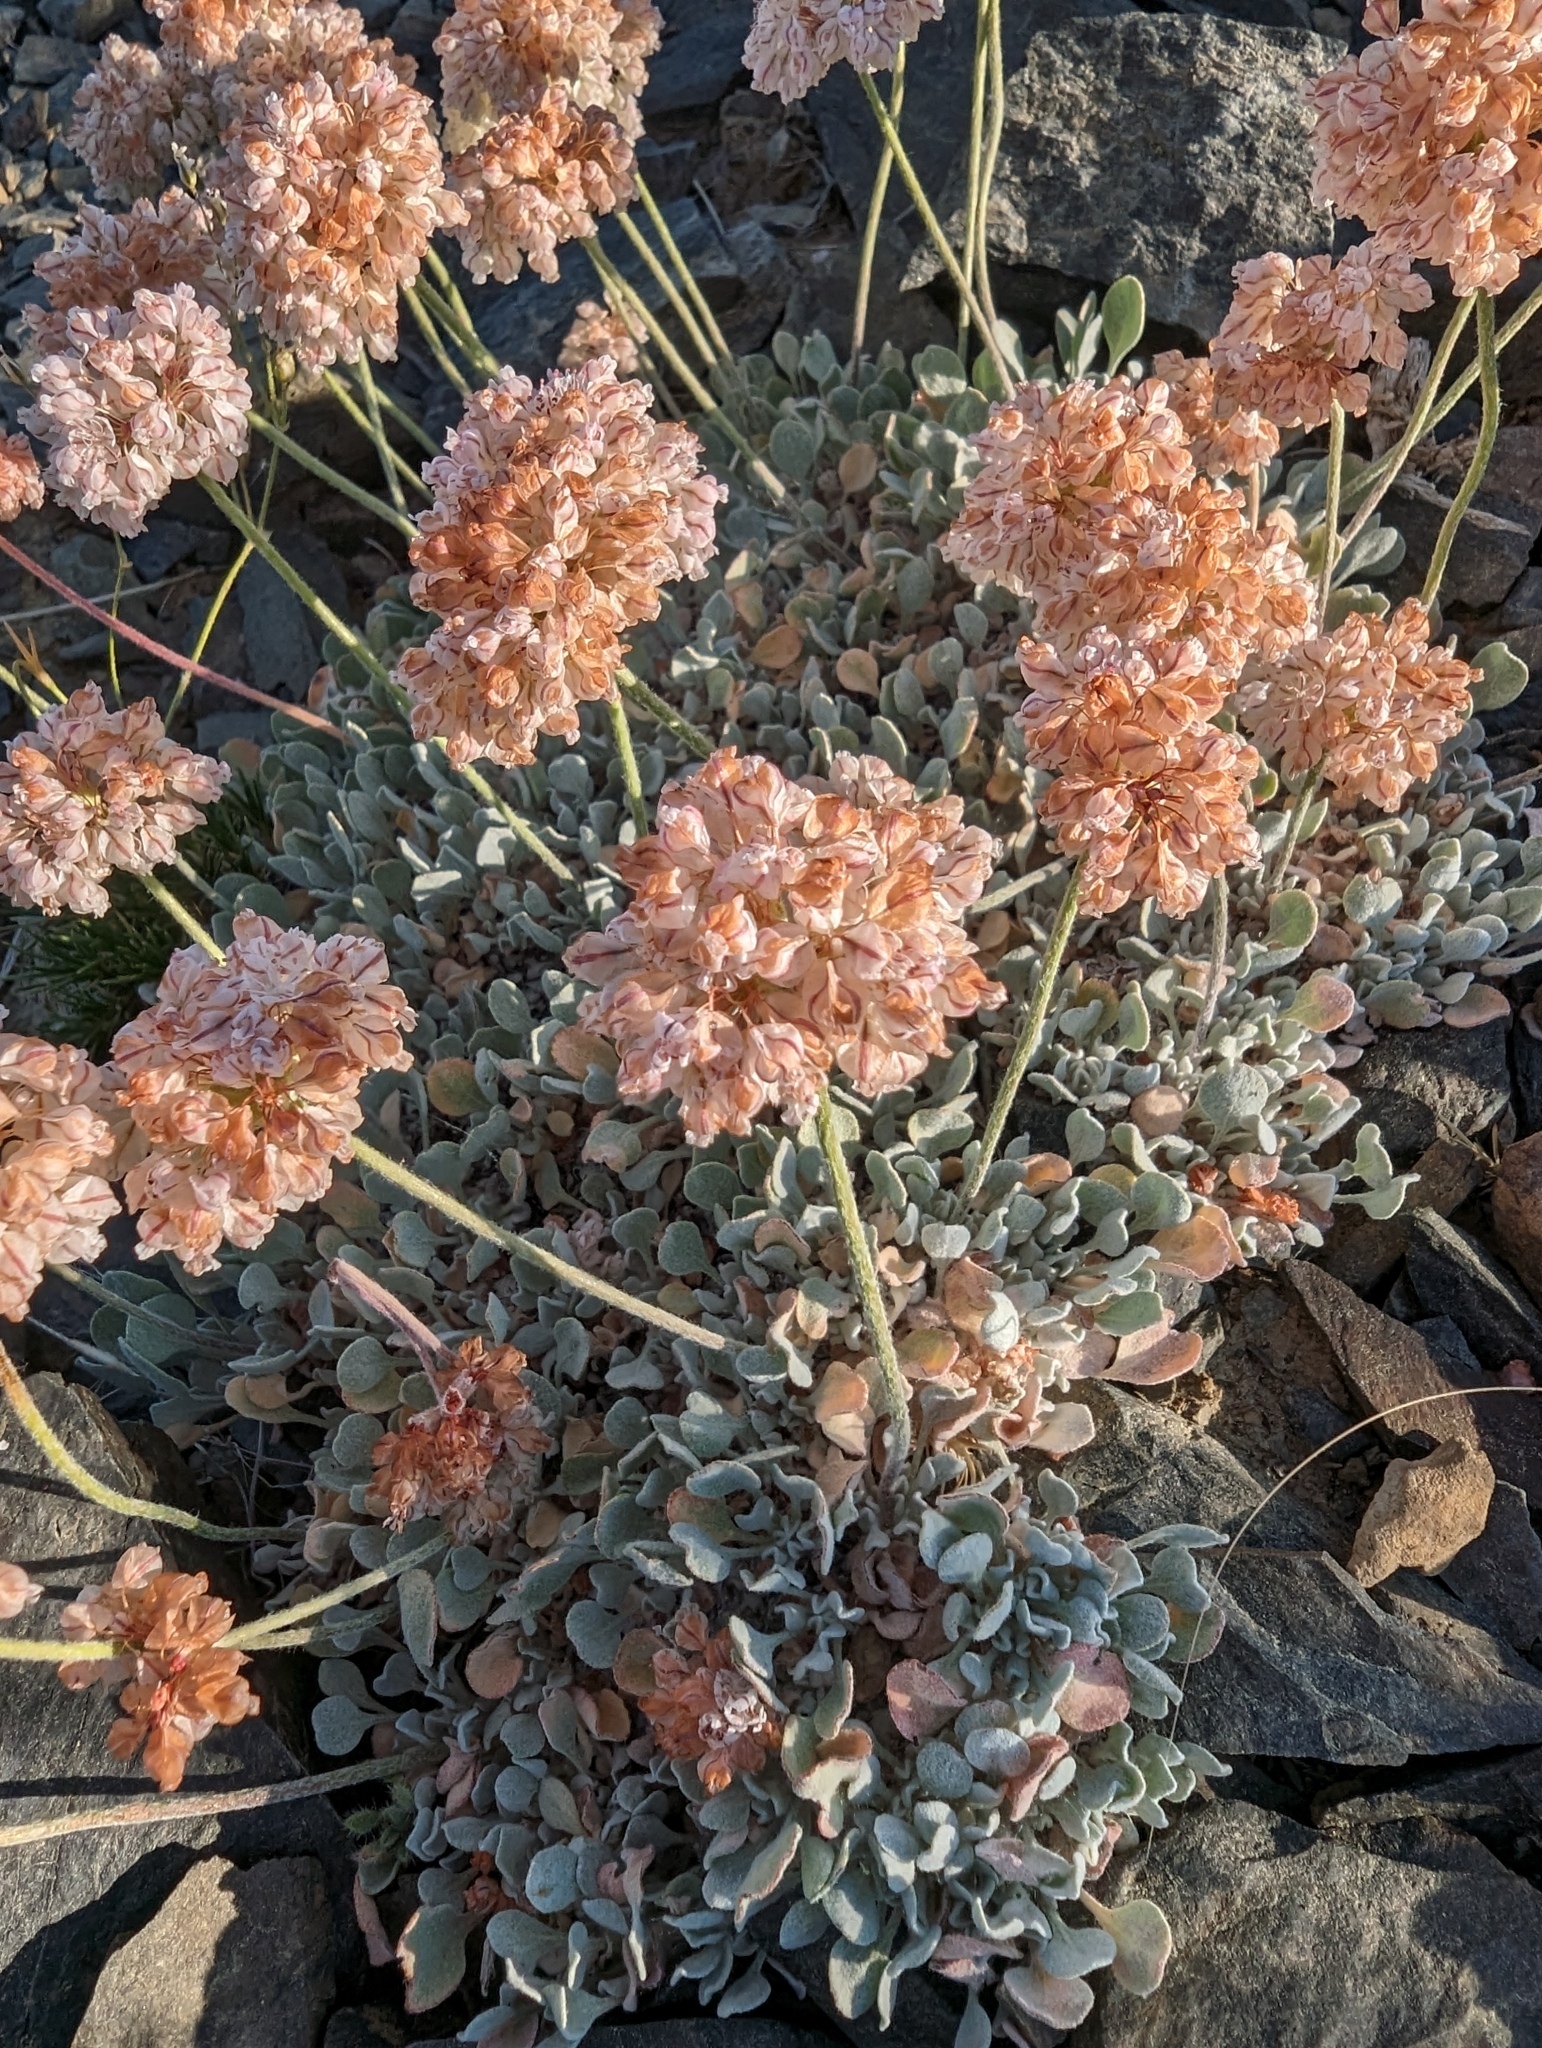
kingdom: Plantae
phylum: Tracheophyta
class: Magnoliopsida
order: Caryophyllales
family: Polygonaceae
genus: Eriogonum
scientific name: Eriogonum ovalifolium
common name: Cushion buckwheat
